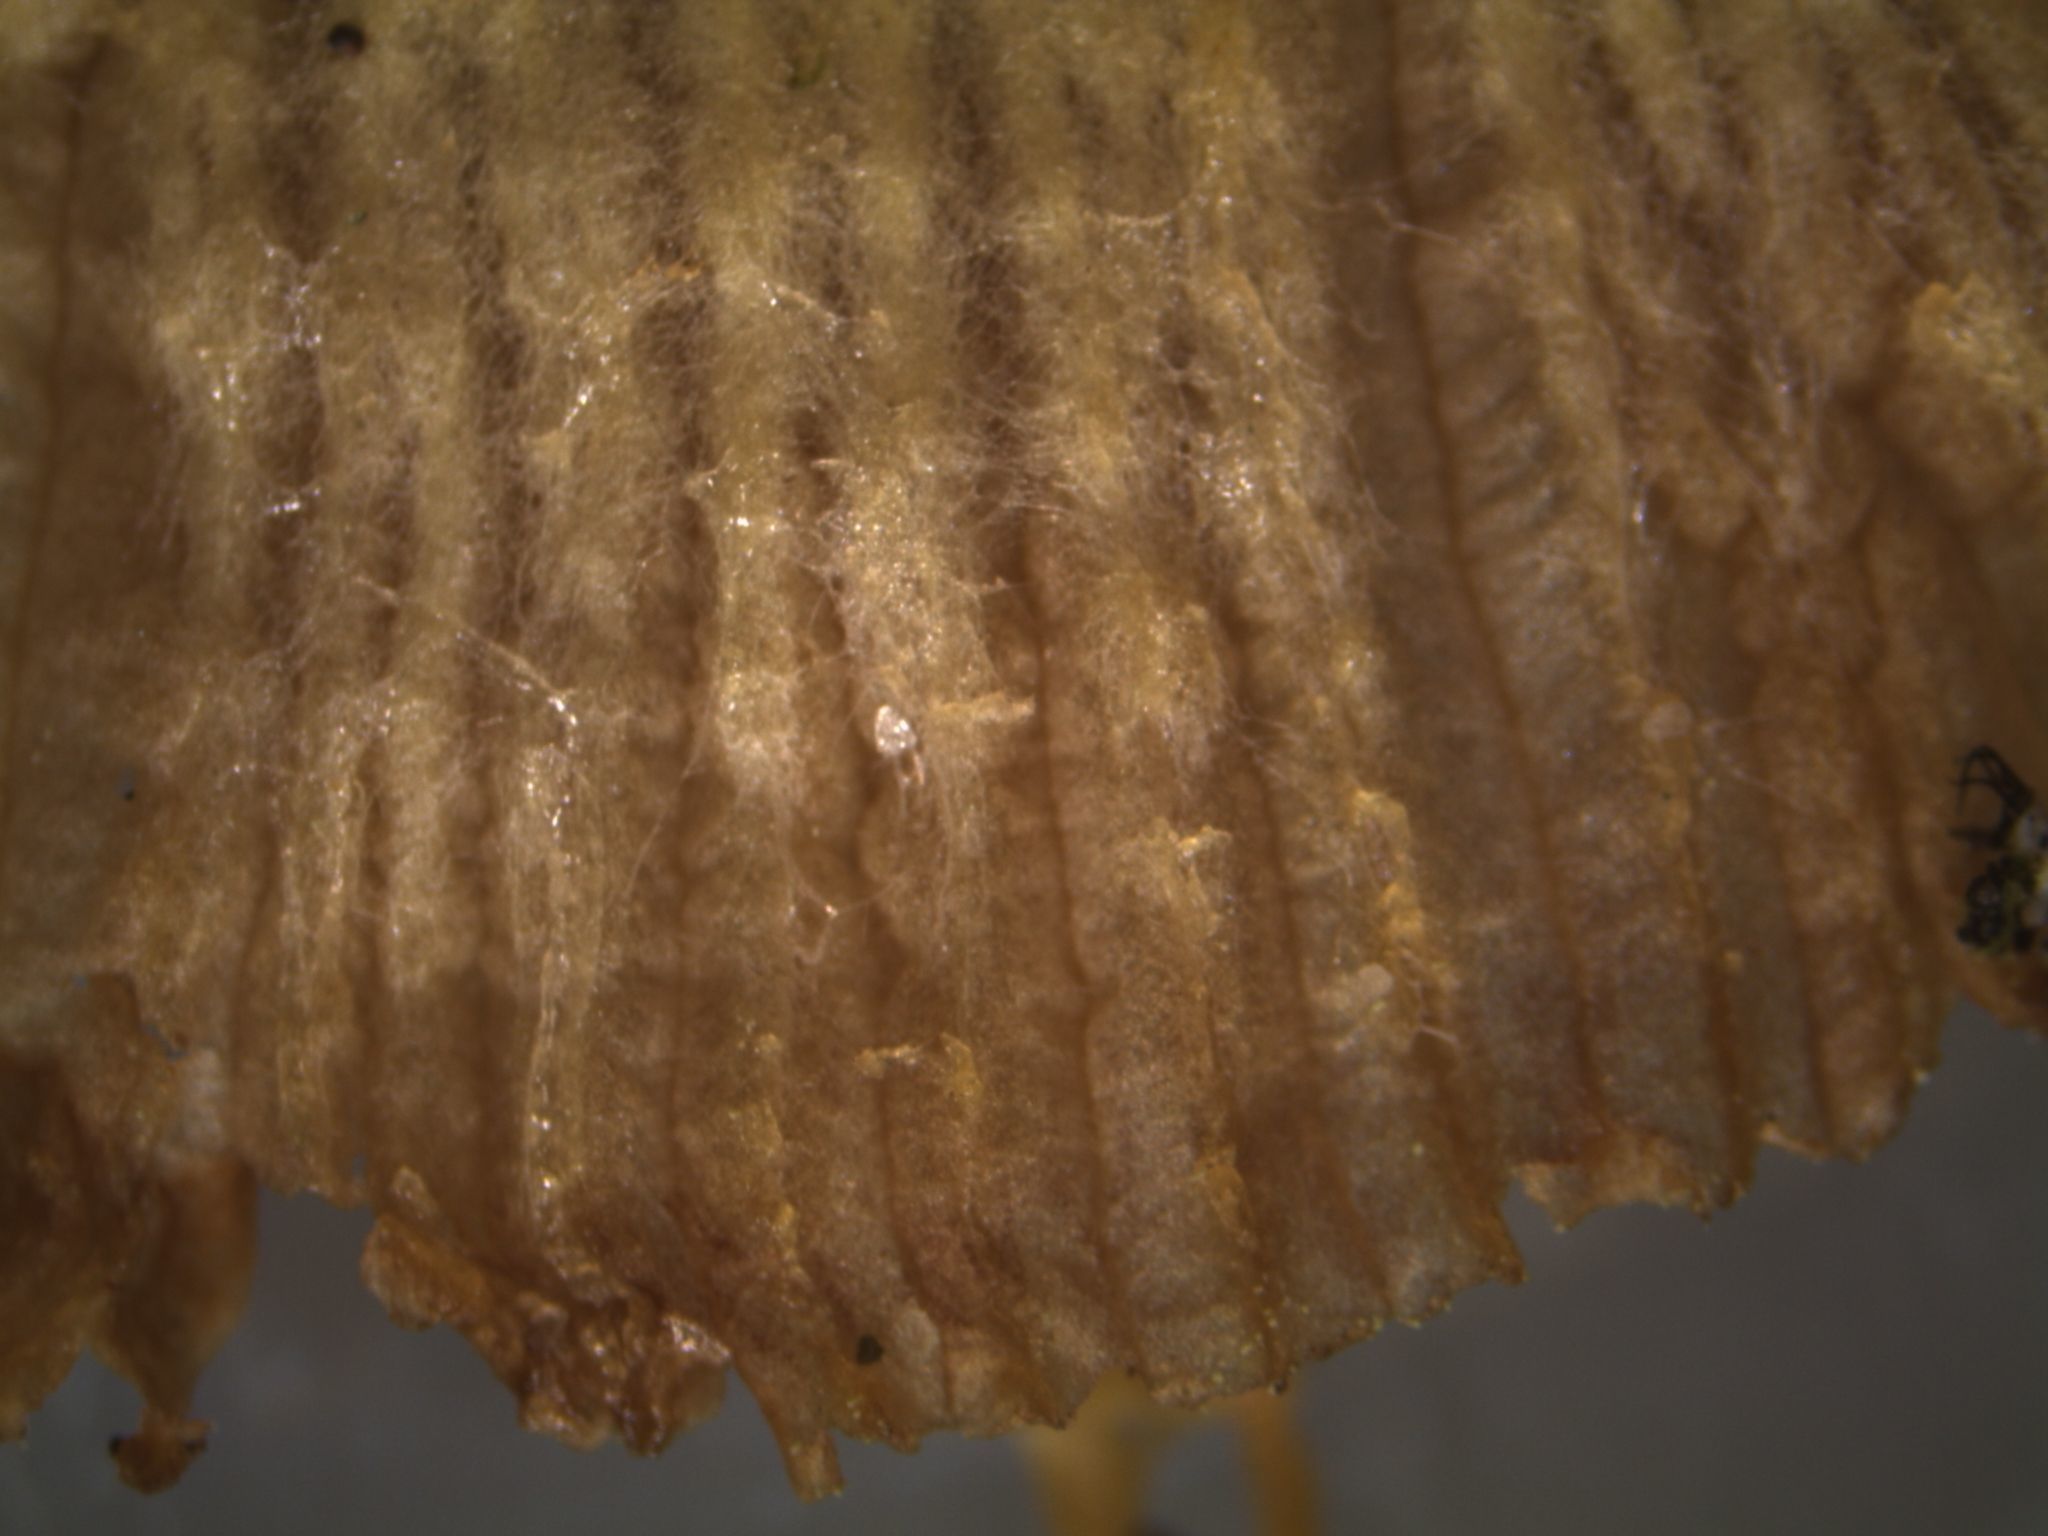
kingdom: Fungi
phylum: Basidiomycota
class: Agaricomycetes
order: Agaricales
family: Bolbitiaceae
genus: Bolbitius
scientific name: Bolbitius titubans
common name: Yellow fieldcap
